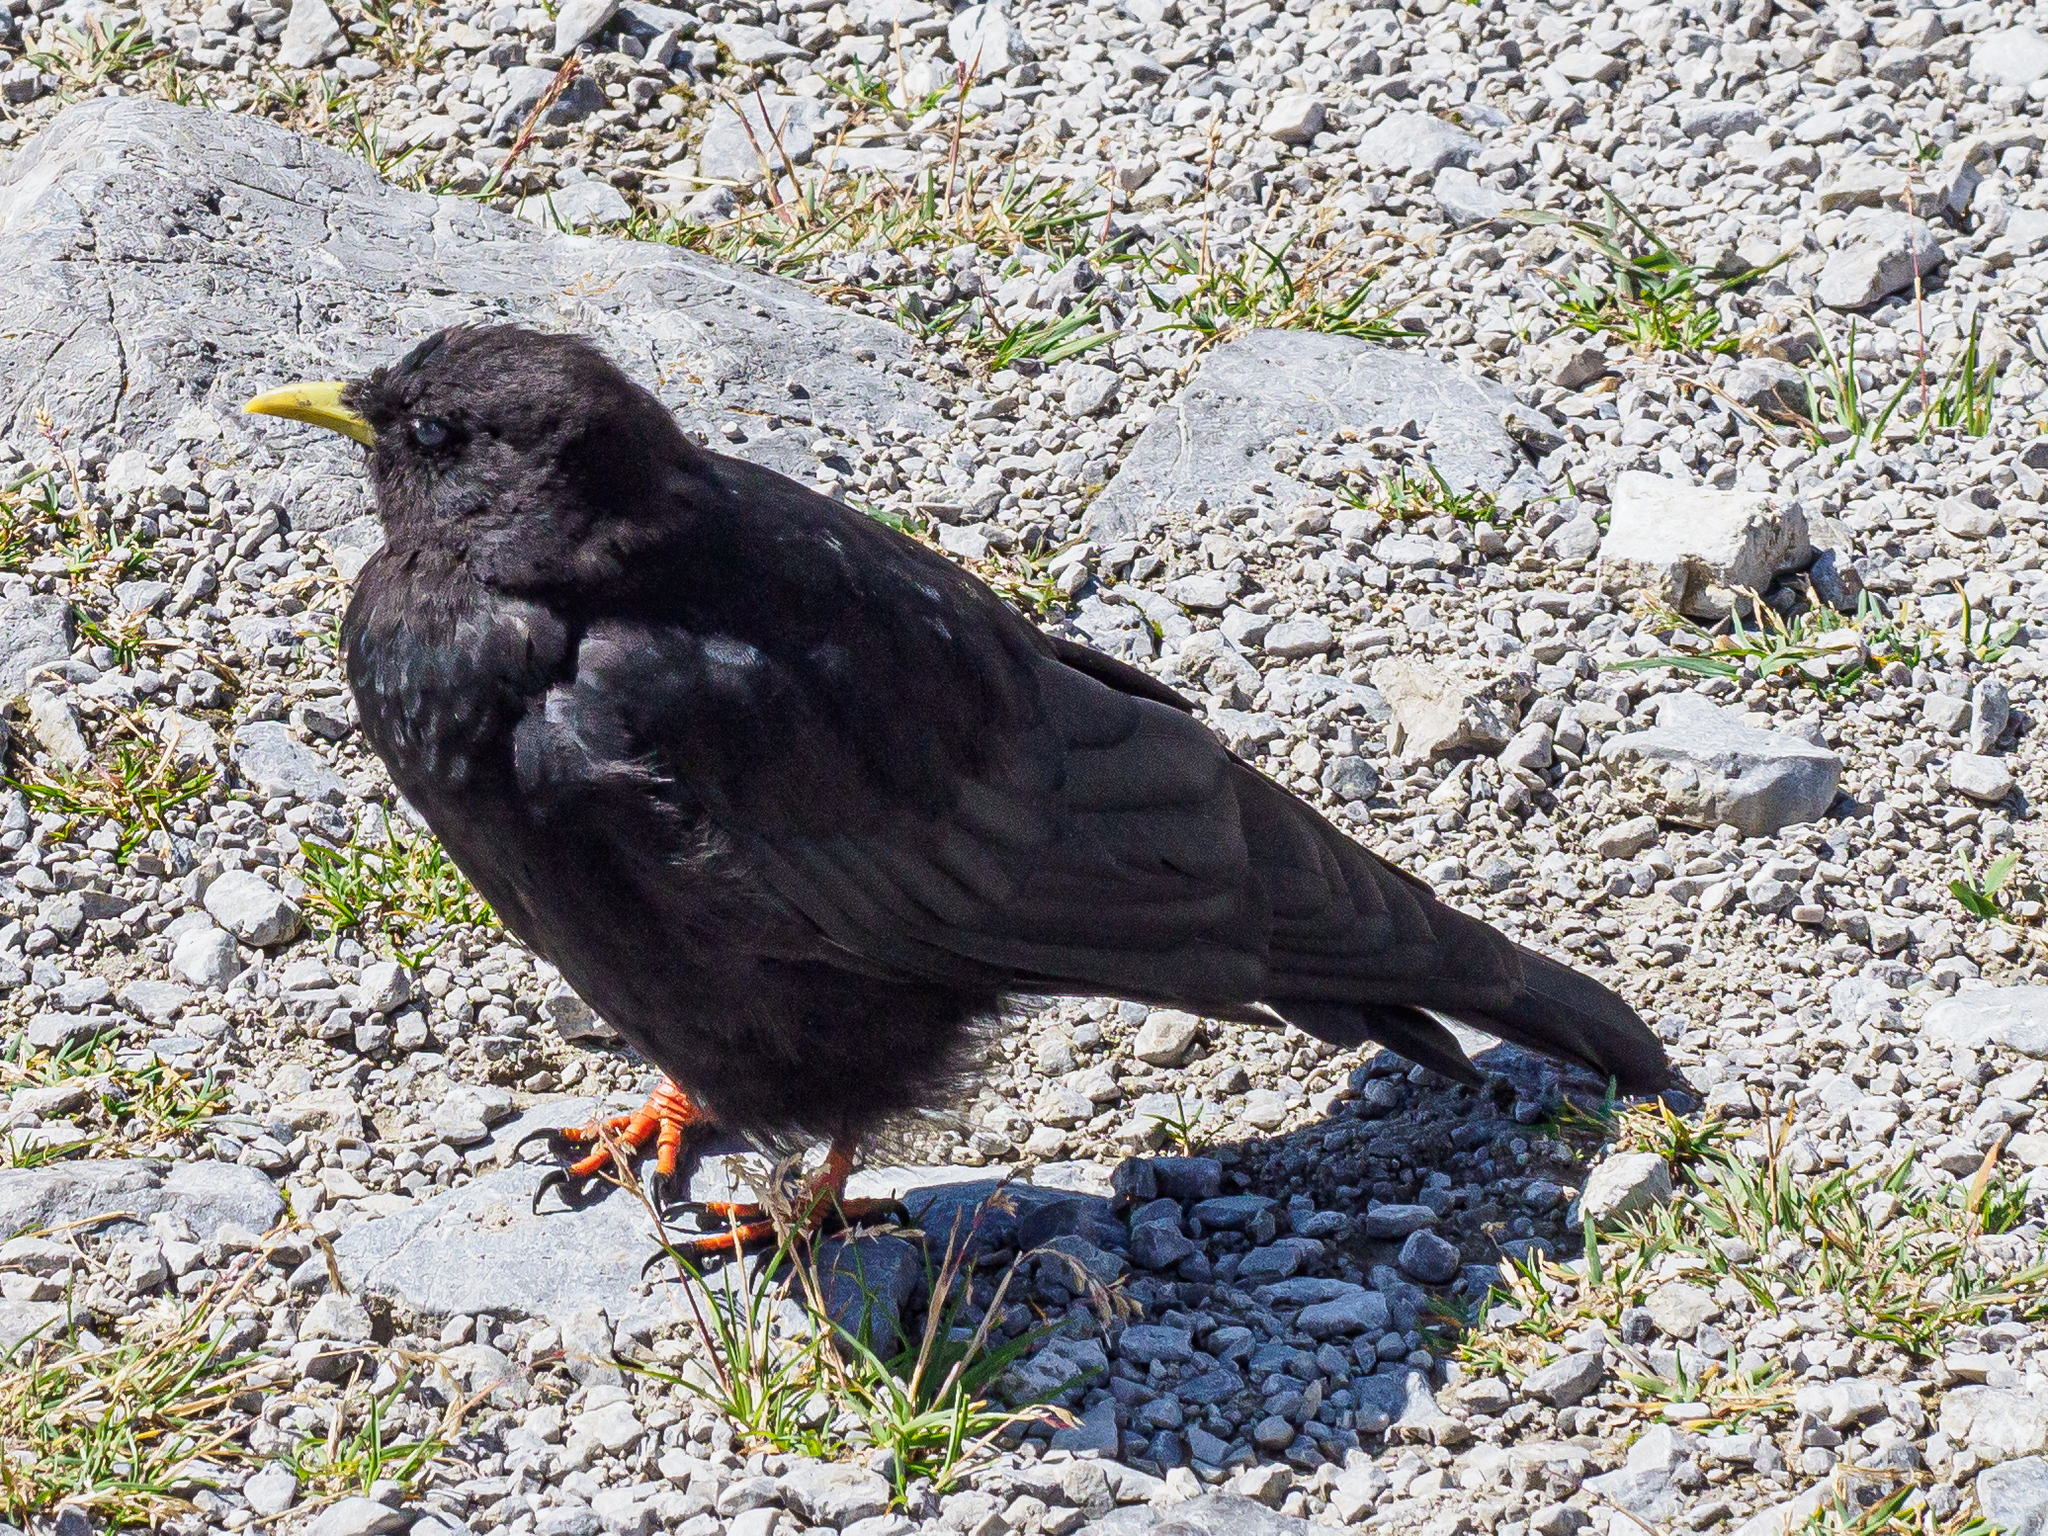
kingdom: Animalia
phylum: Chordata
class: Aves
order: Passeriformes
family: Corvidae
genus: Pyrrhocorax
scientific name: Pyrrhocorax graculus
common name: Alpine chough
